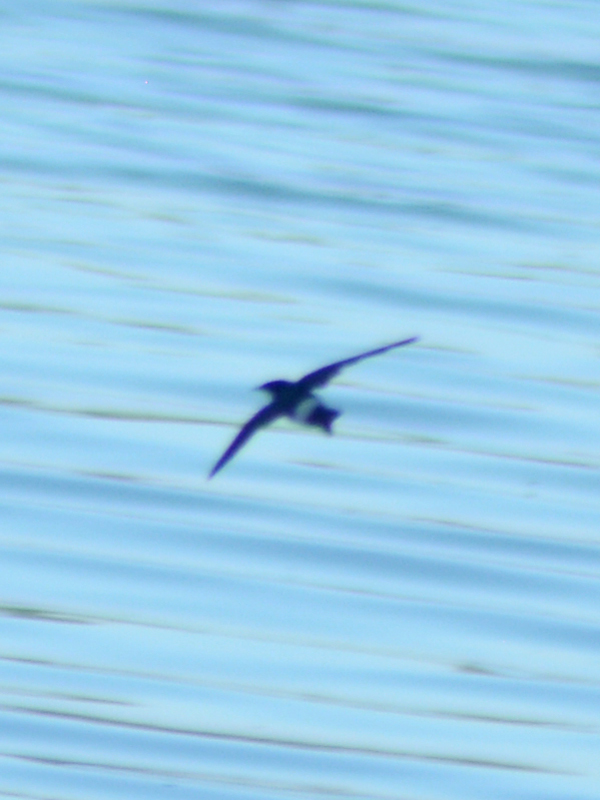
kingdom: Animalia
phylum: Chordata
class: Aves
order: Passeriformes
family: Hirundinidae
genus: Tachycineta
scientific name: Tachycineta albilinea
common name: Mangrove swallow
